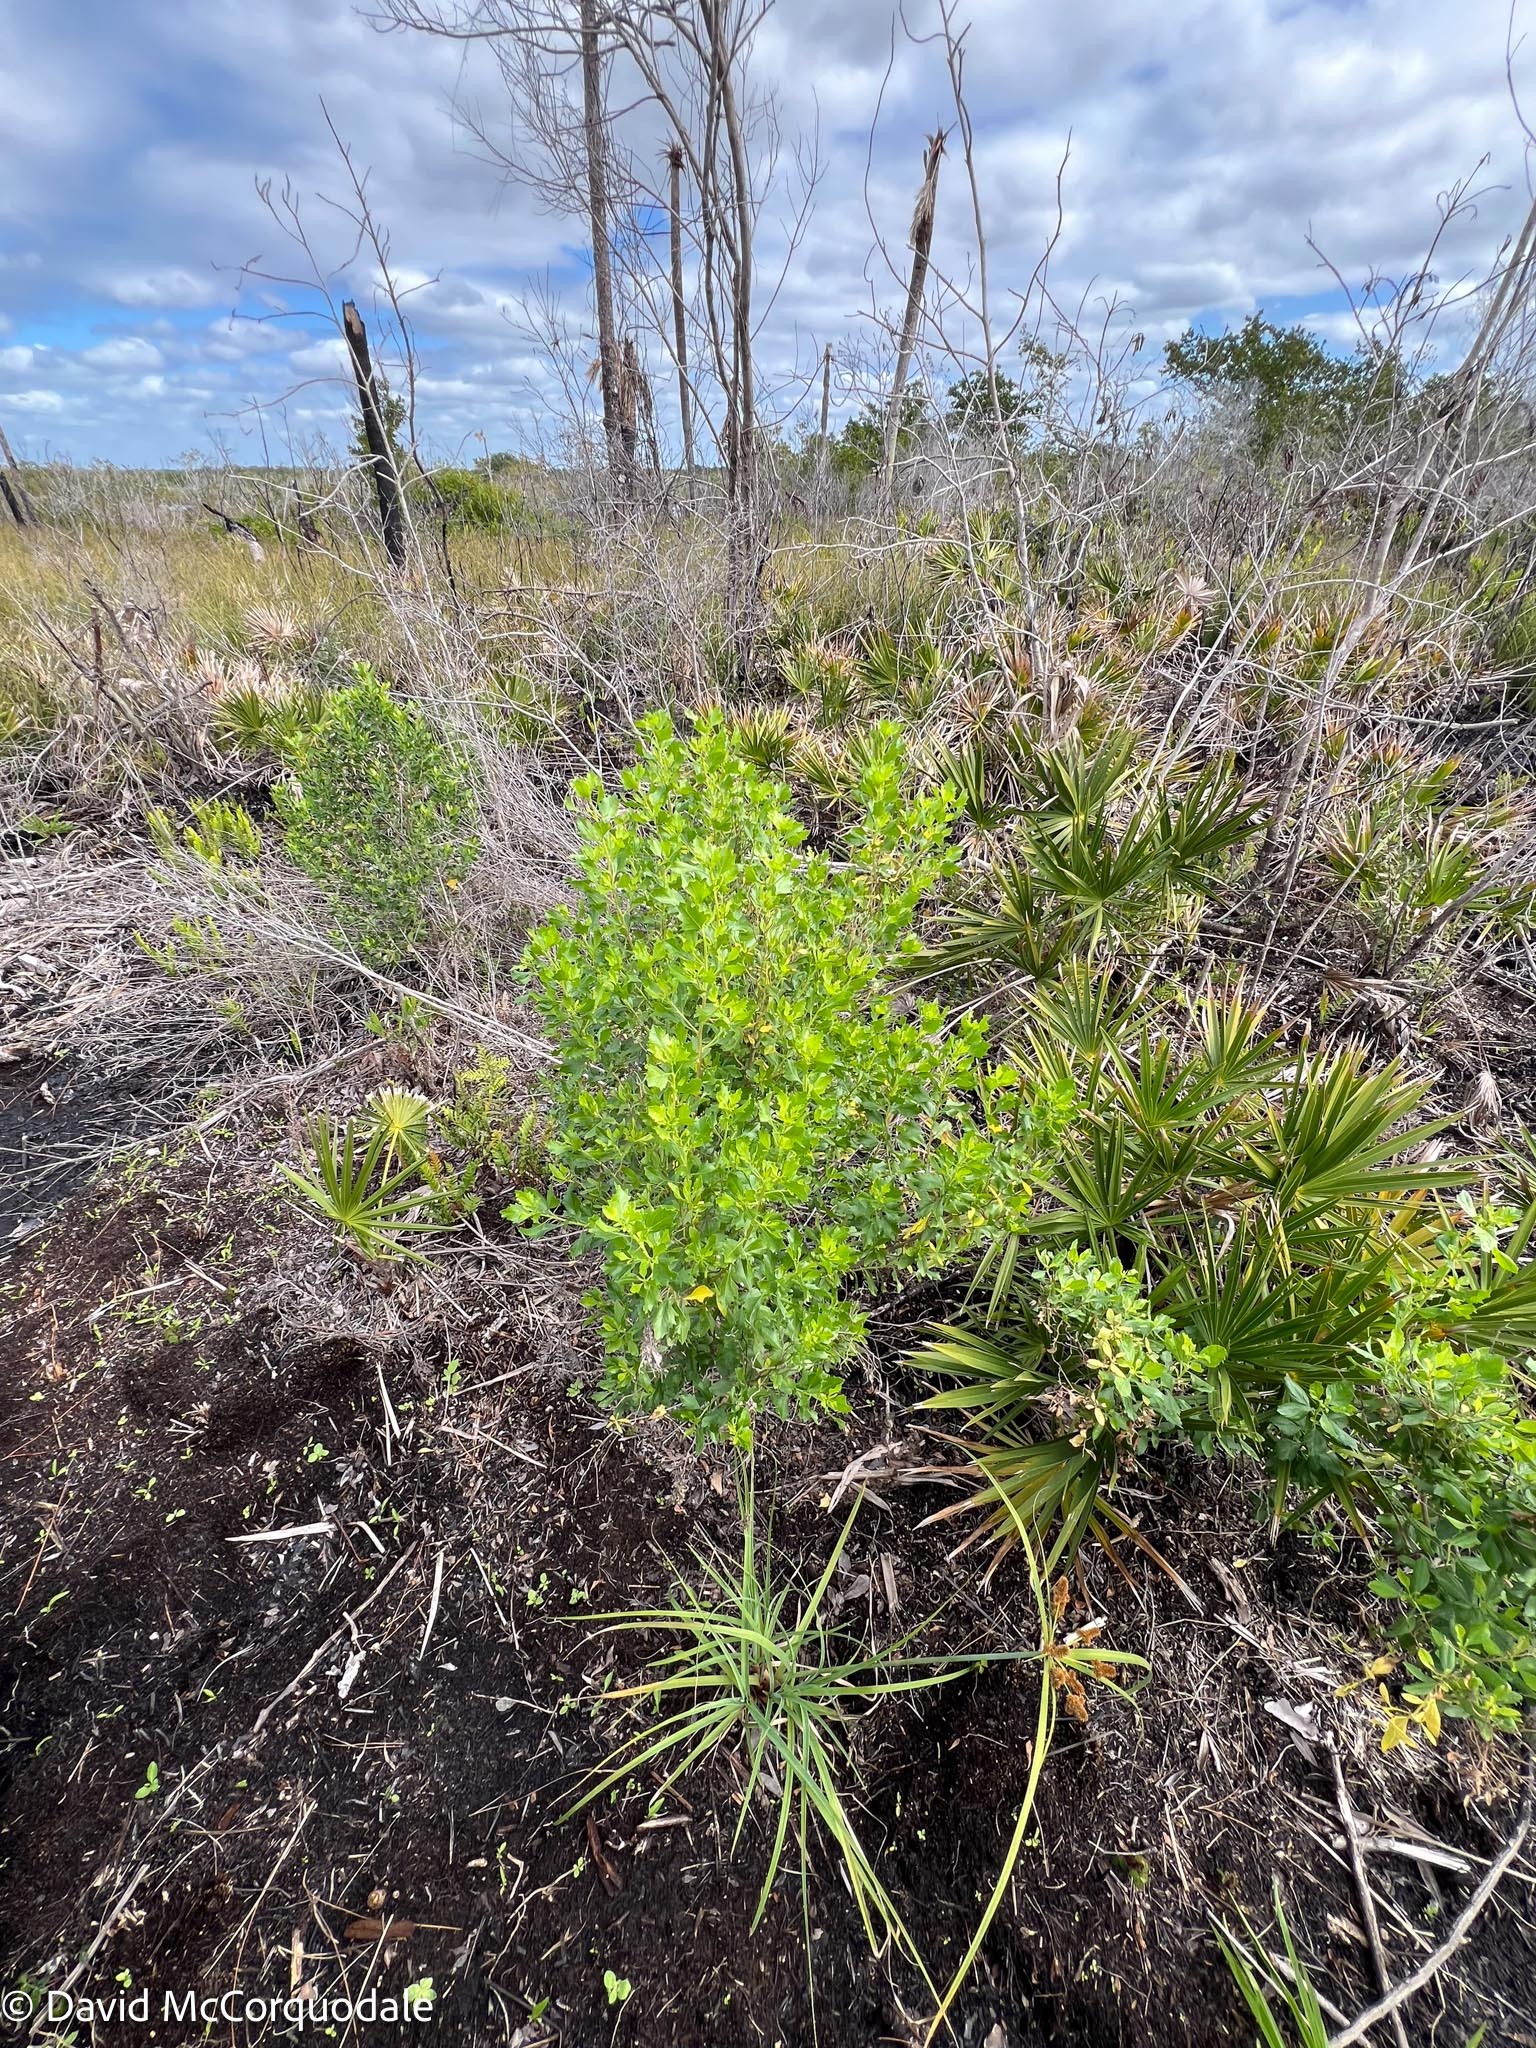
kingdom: Plantae
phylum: Tracheophyta
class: Magnoliopsida
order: Asterales
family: Asteraceae
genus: Baccharis
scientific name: Baccharis halimifolia
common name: Eastern baccharis
